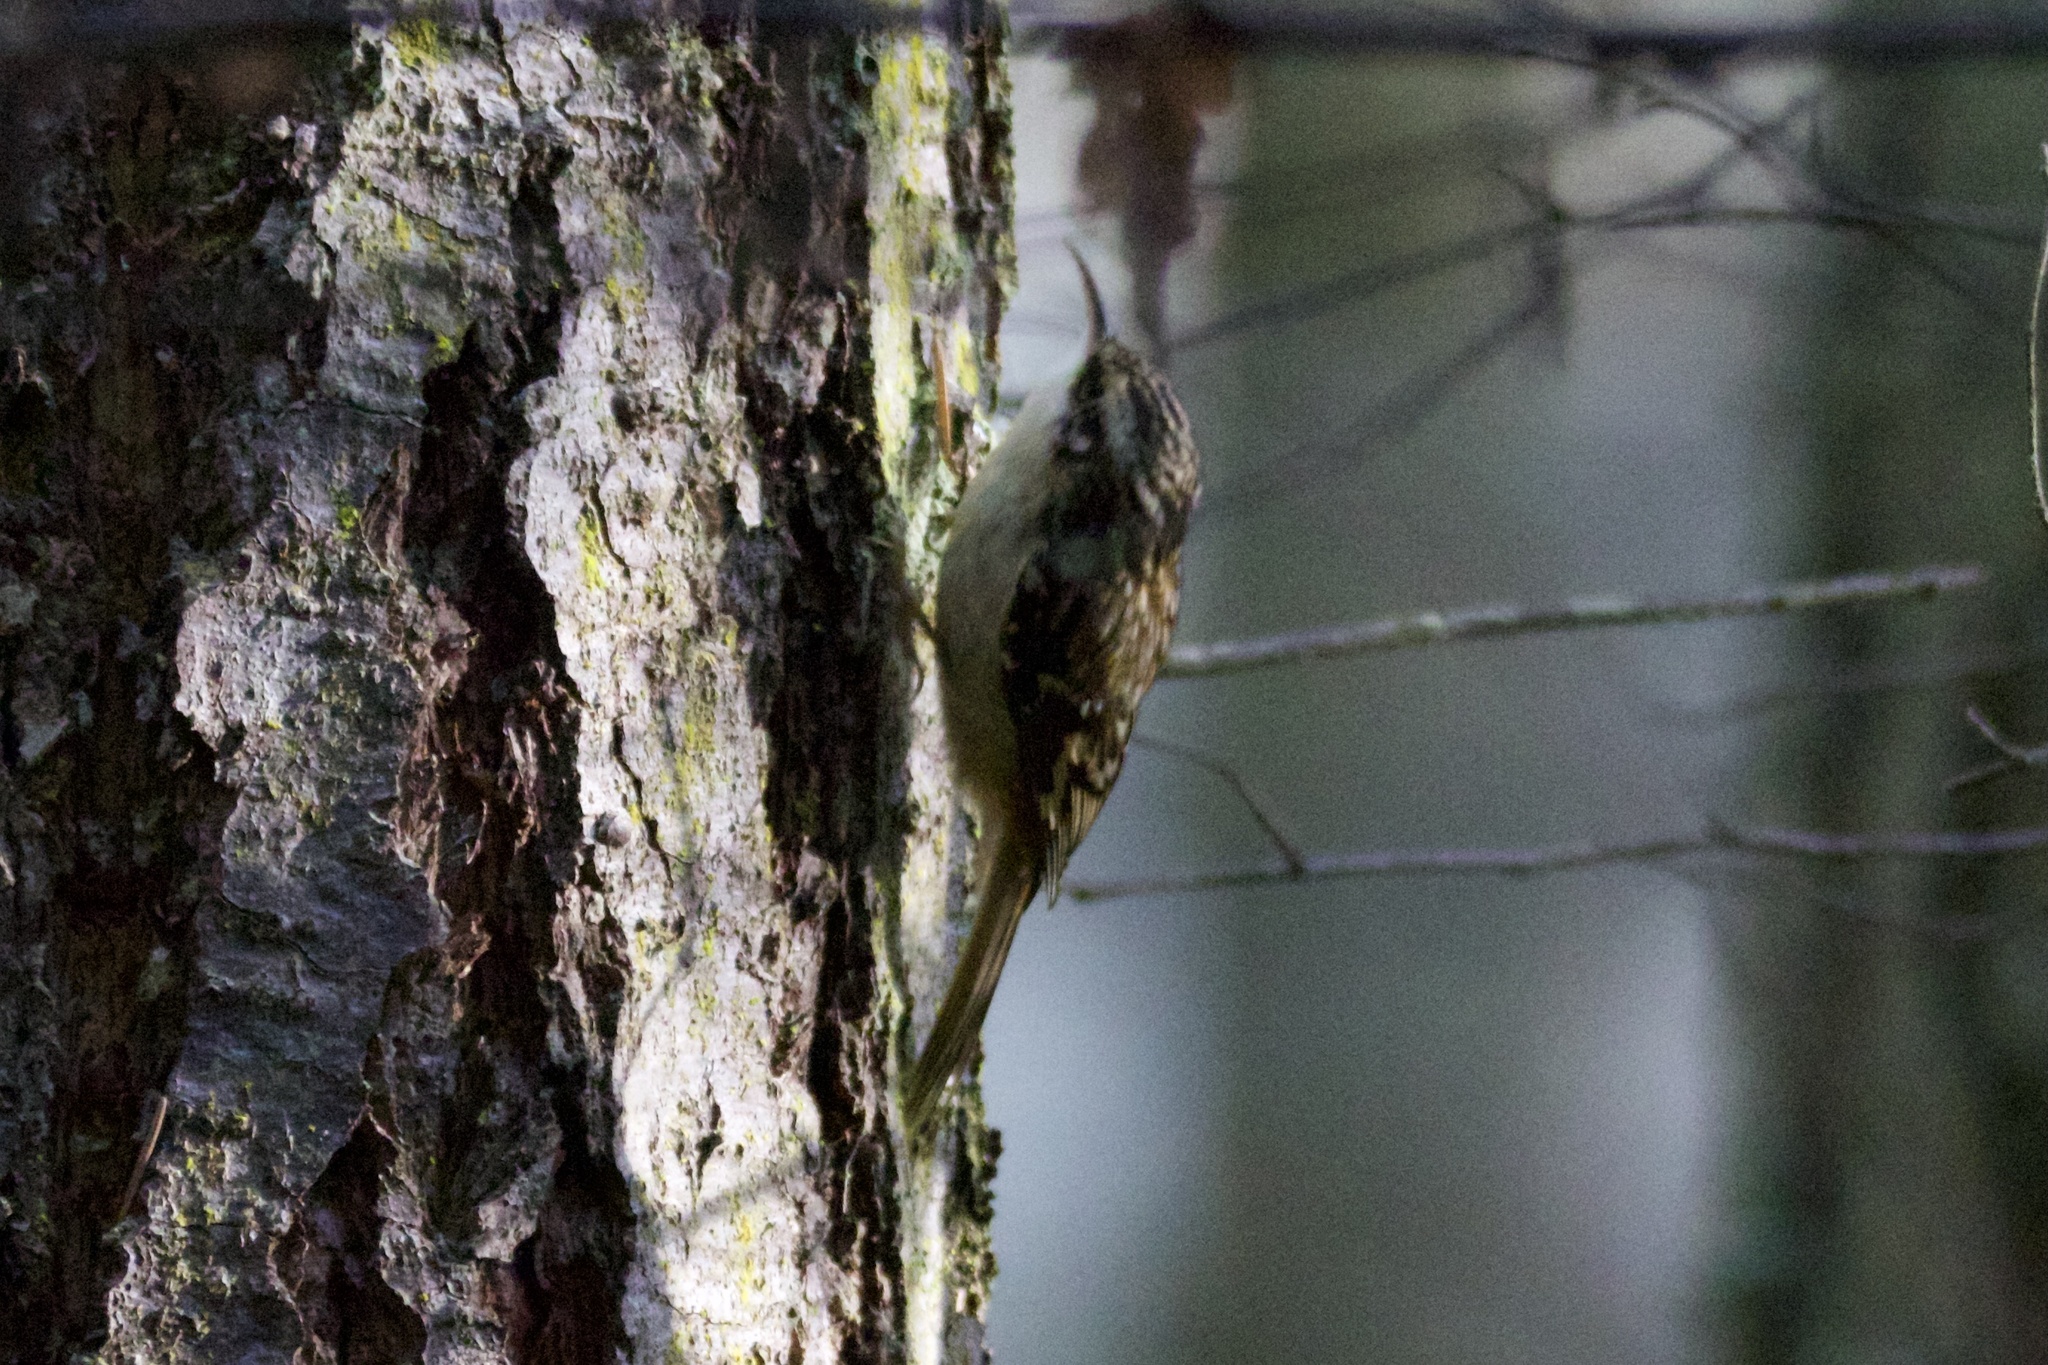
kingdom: Animalia
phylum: Chordata
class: Aves
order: Passeriformes
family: Certhiidae
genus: Certhia
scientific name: Certhia americana
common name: Brown creeper
